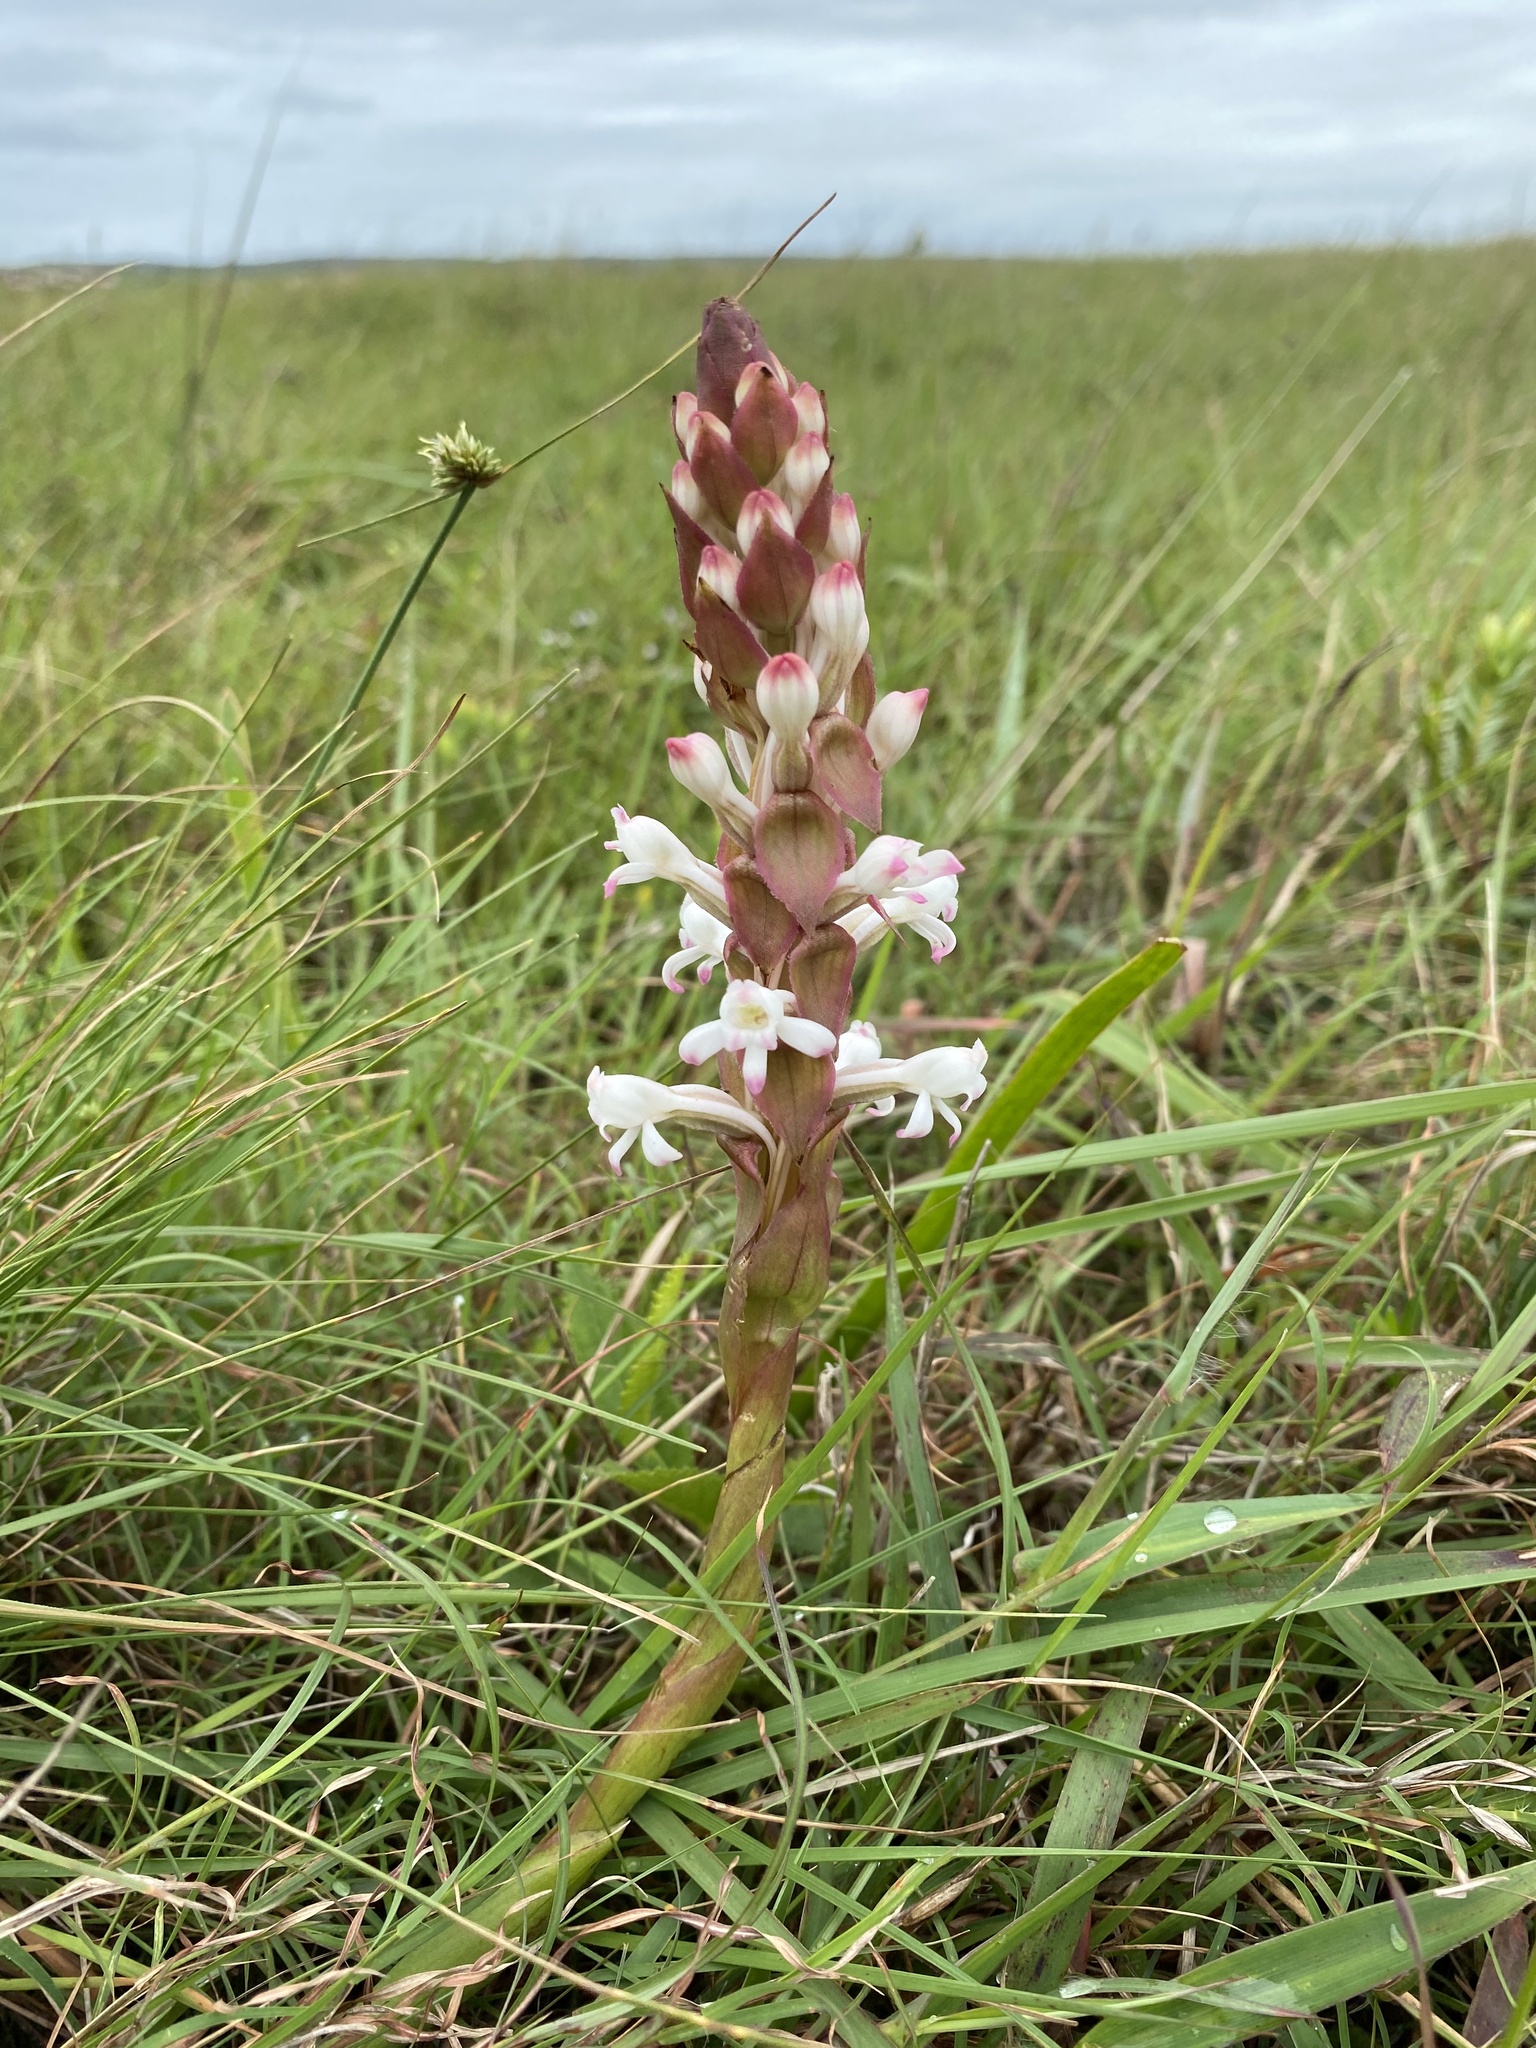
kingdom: Plantae
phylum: Tracheophyta
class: Liliopsida
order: Asparagales
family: Orchidaceae
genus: Satyrium
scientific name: Satyrium longicauda
